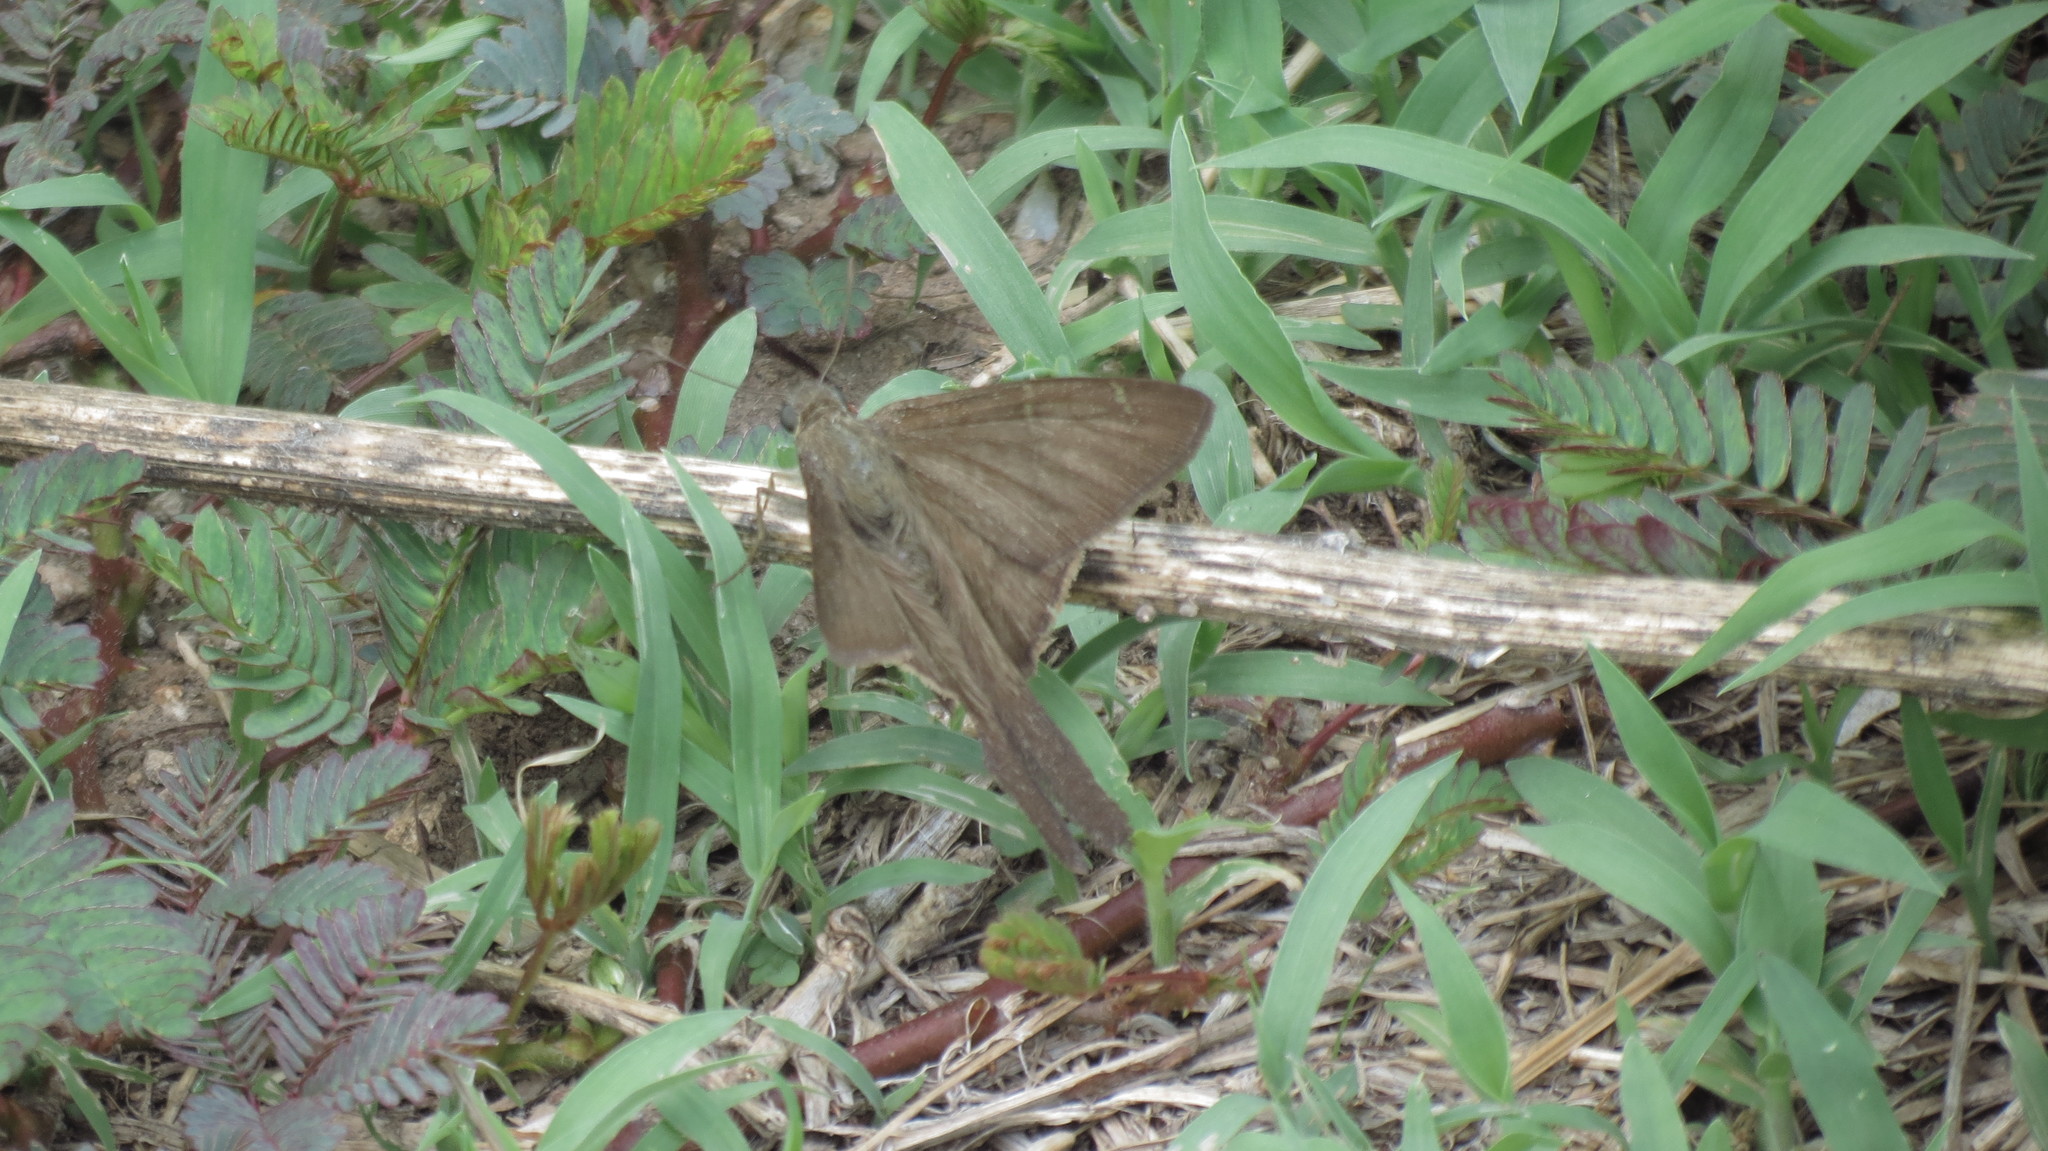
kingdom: Animalia
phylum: Arthropoda
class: Insecta
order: Lepidoptera
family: Hesperiidae
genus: Urbanus
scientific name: Urbanus simplicius
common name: Plain longtail
